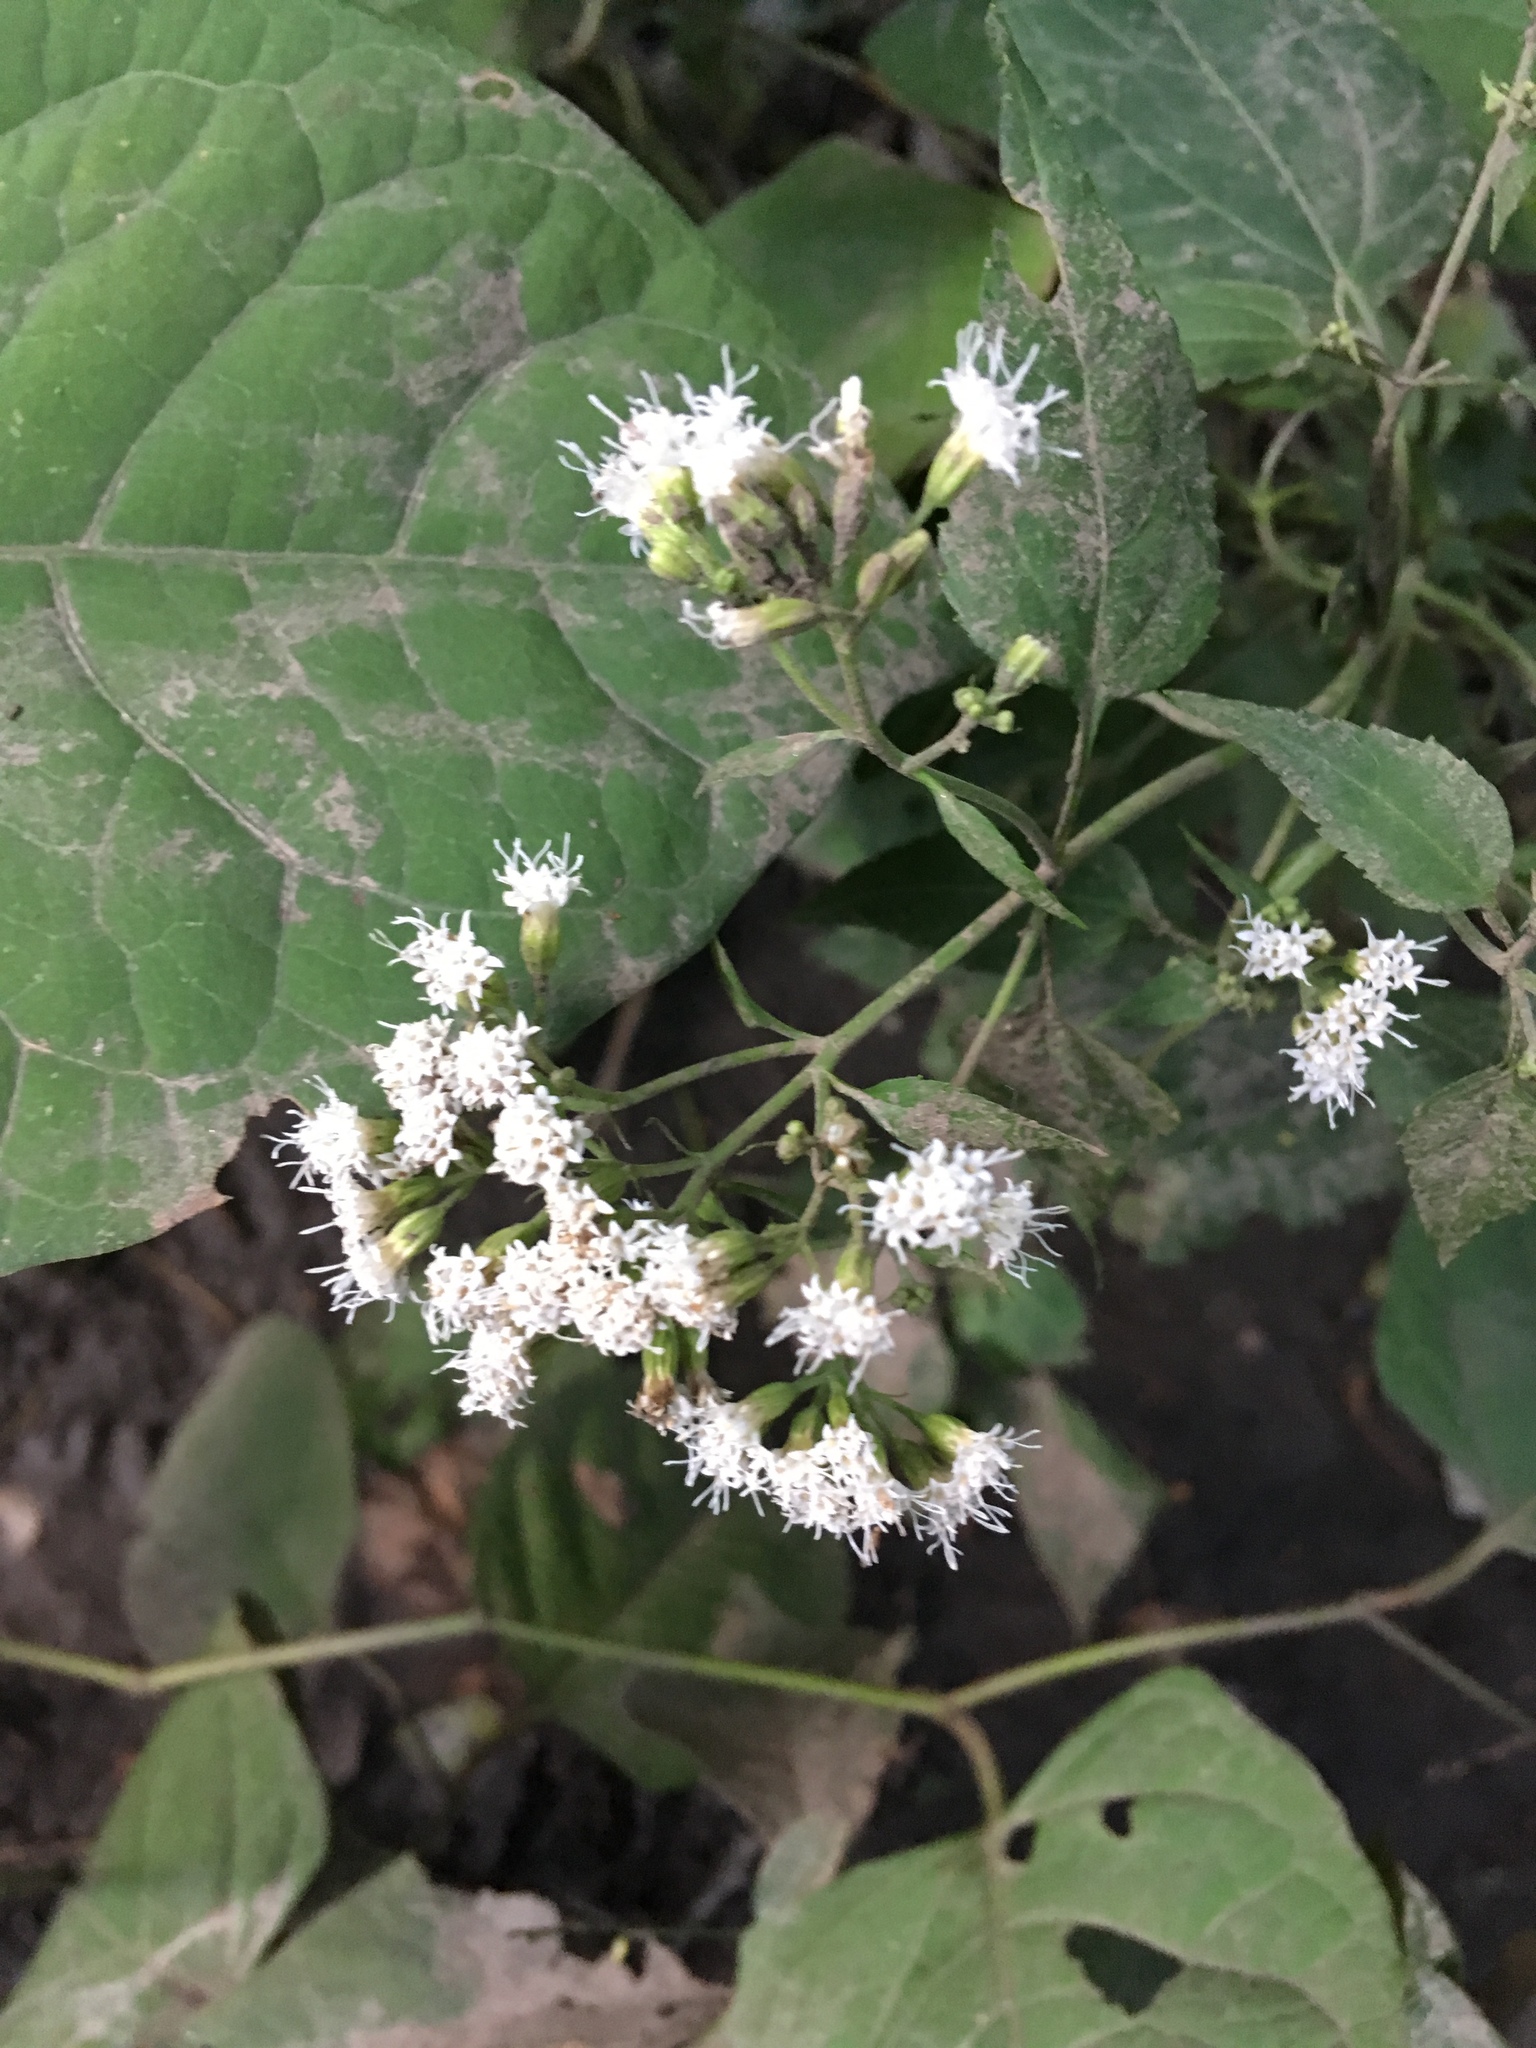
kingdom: Plantae
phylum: Tracheophyta
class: Magnoliopsida
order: Asterales
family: Asteraceae
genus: Ageratina
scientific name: Ageratina altissima
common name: White snakeroot
